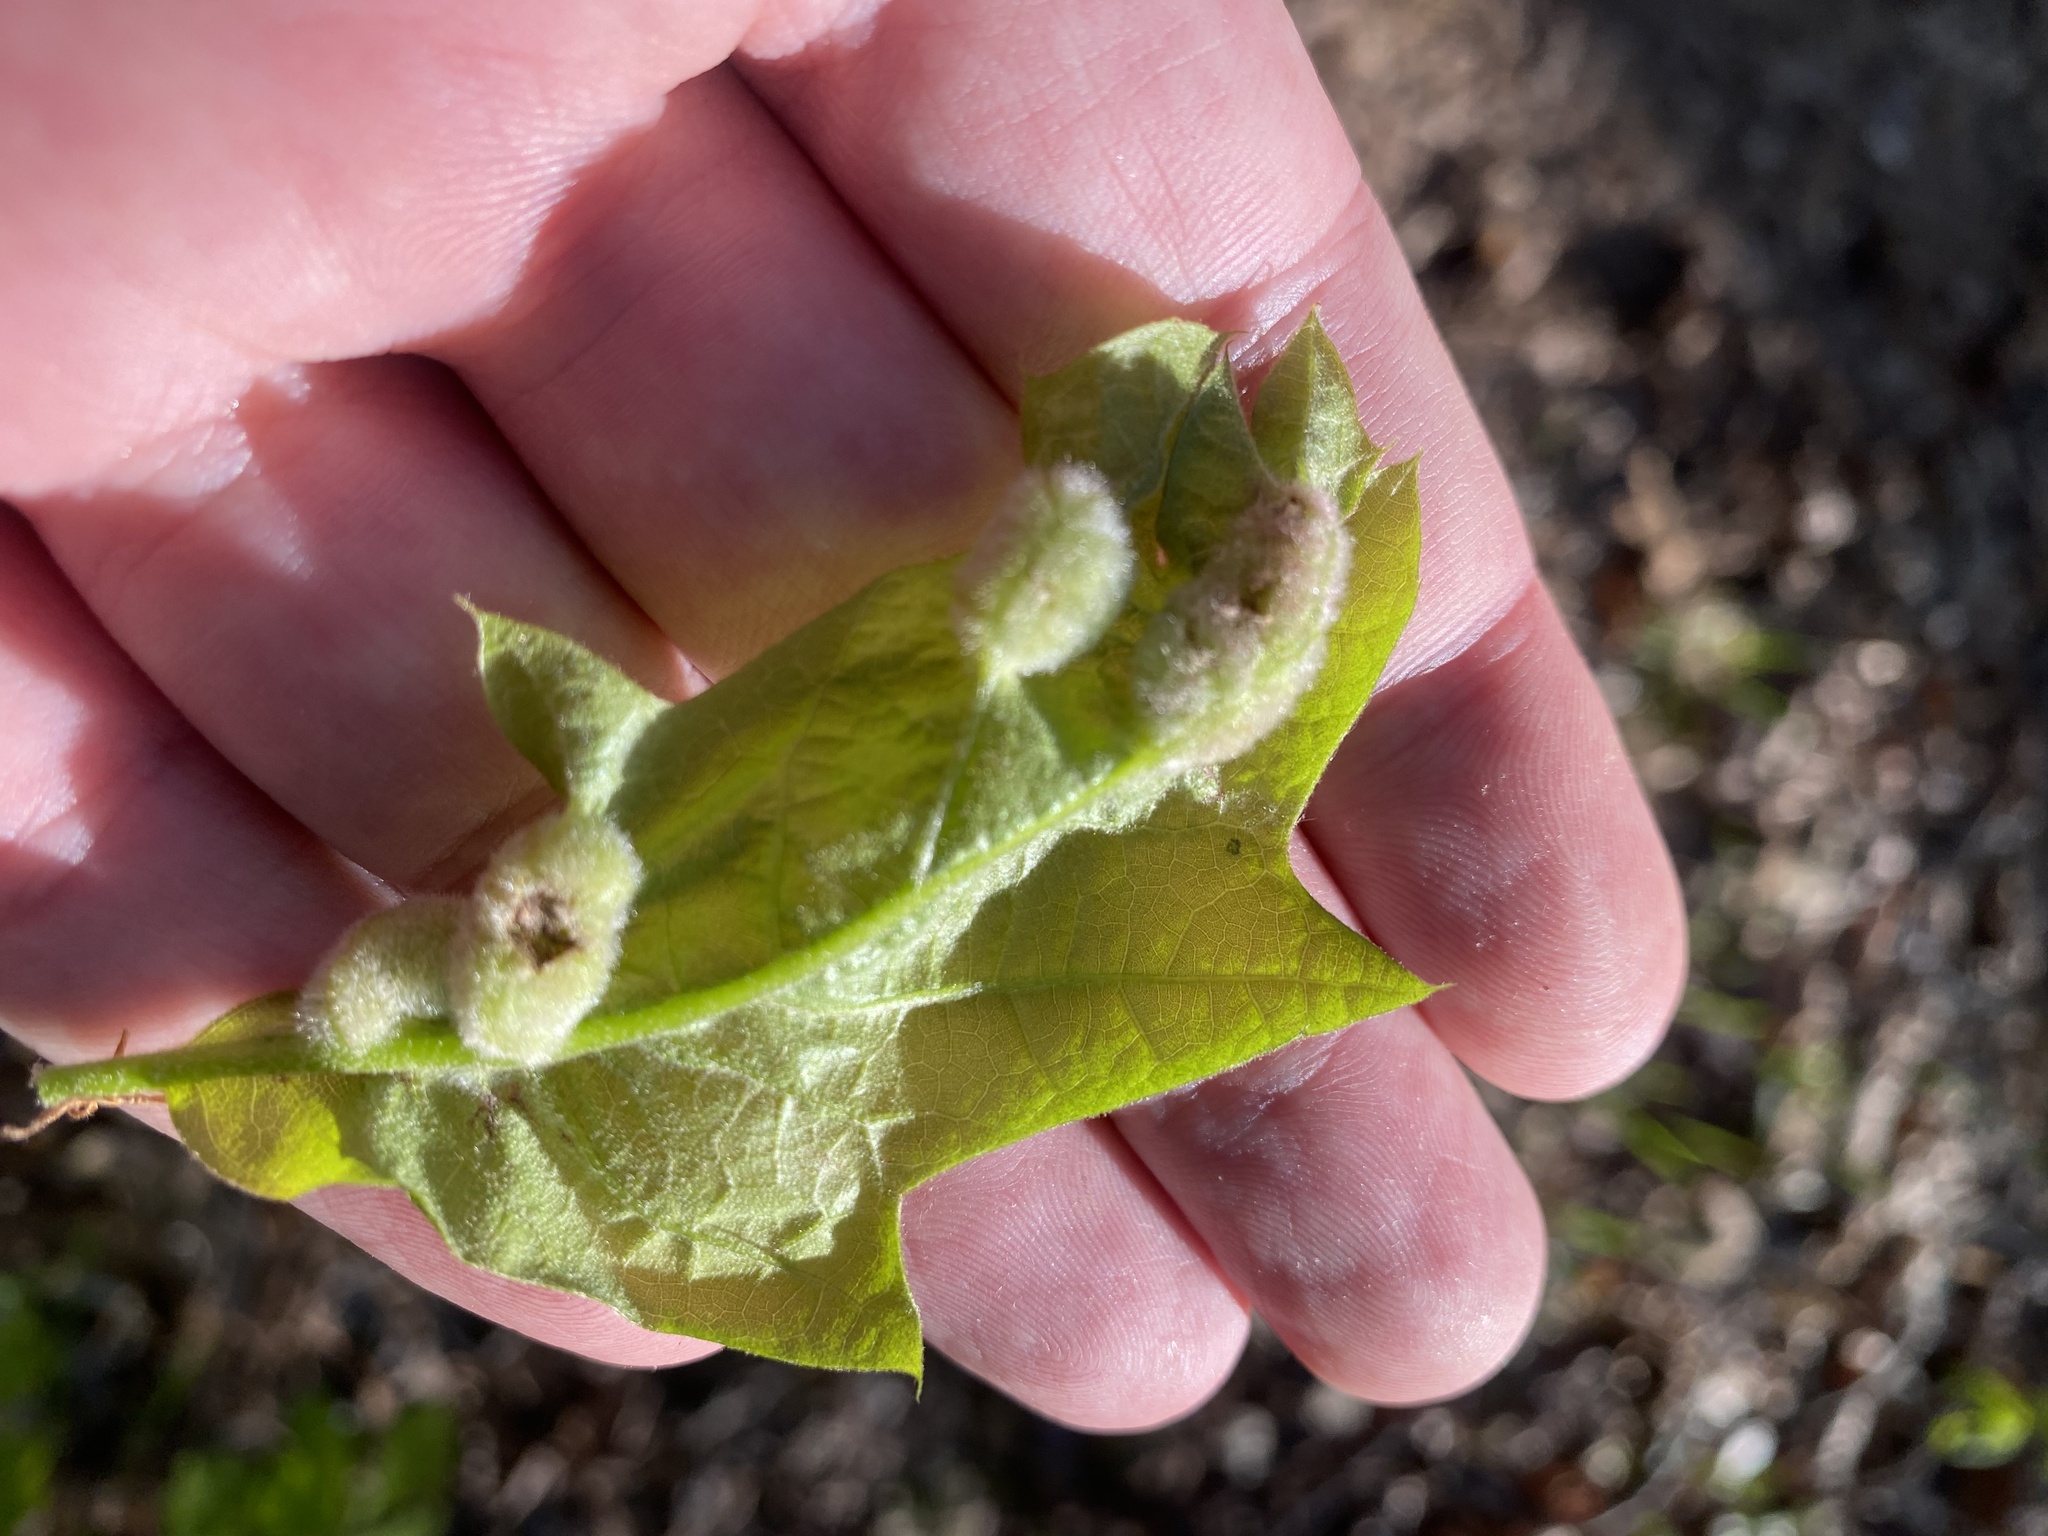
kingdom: Animalia
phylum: Arthropoda
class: Insecta
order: Diptera
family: Cecidomyiidae
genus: Macrodiplosis
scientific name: Macrodiplosis niveipila
